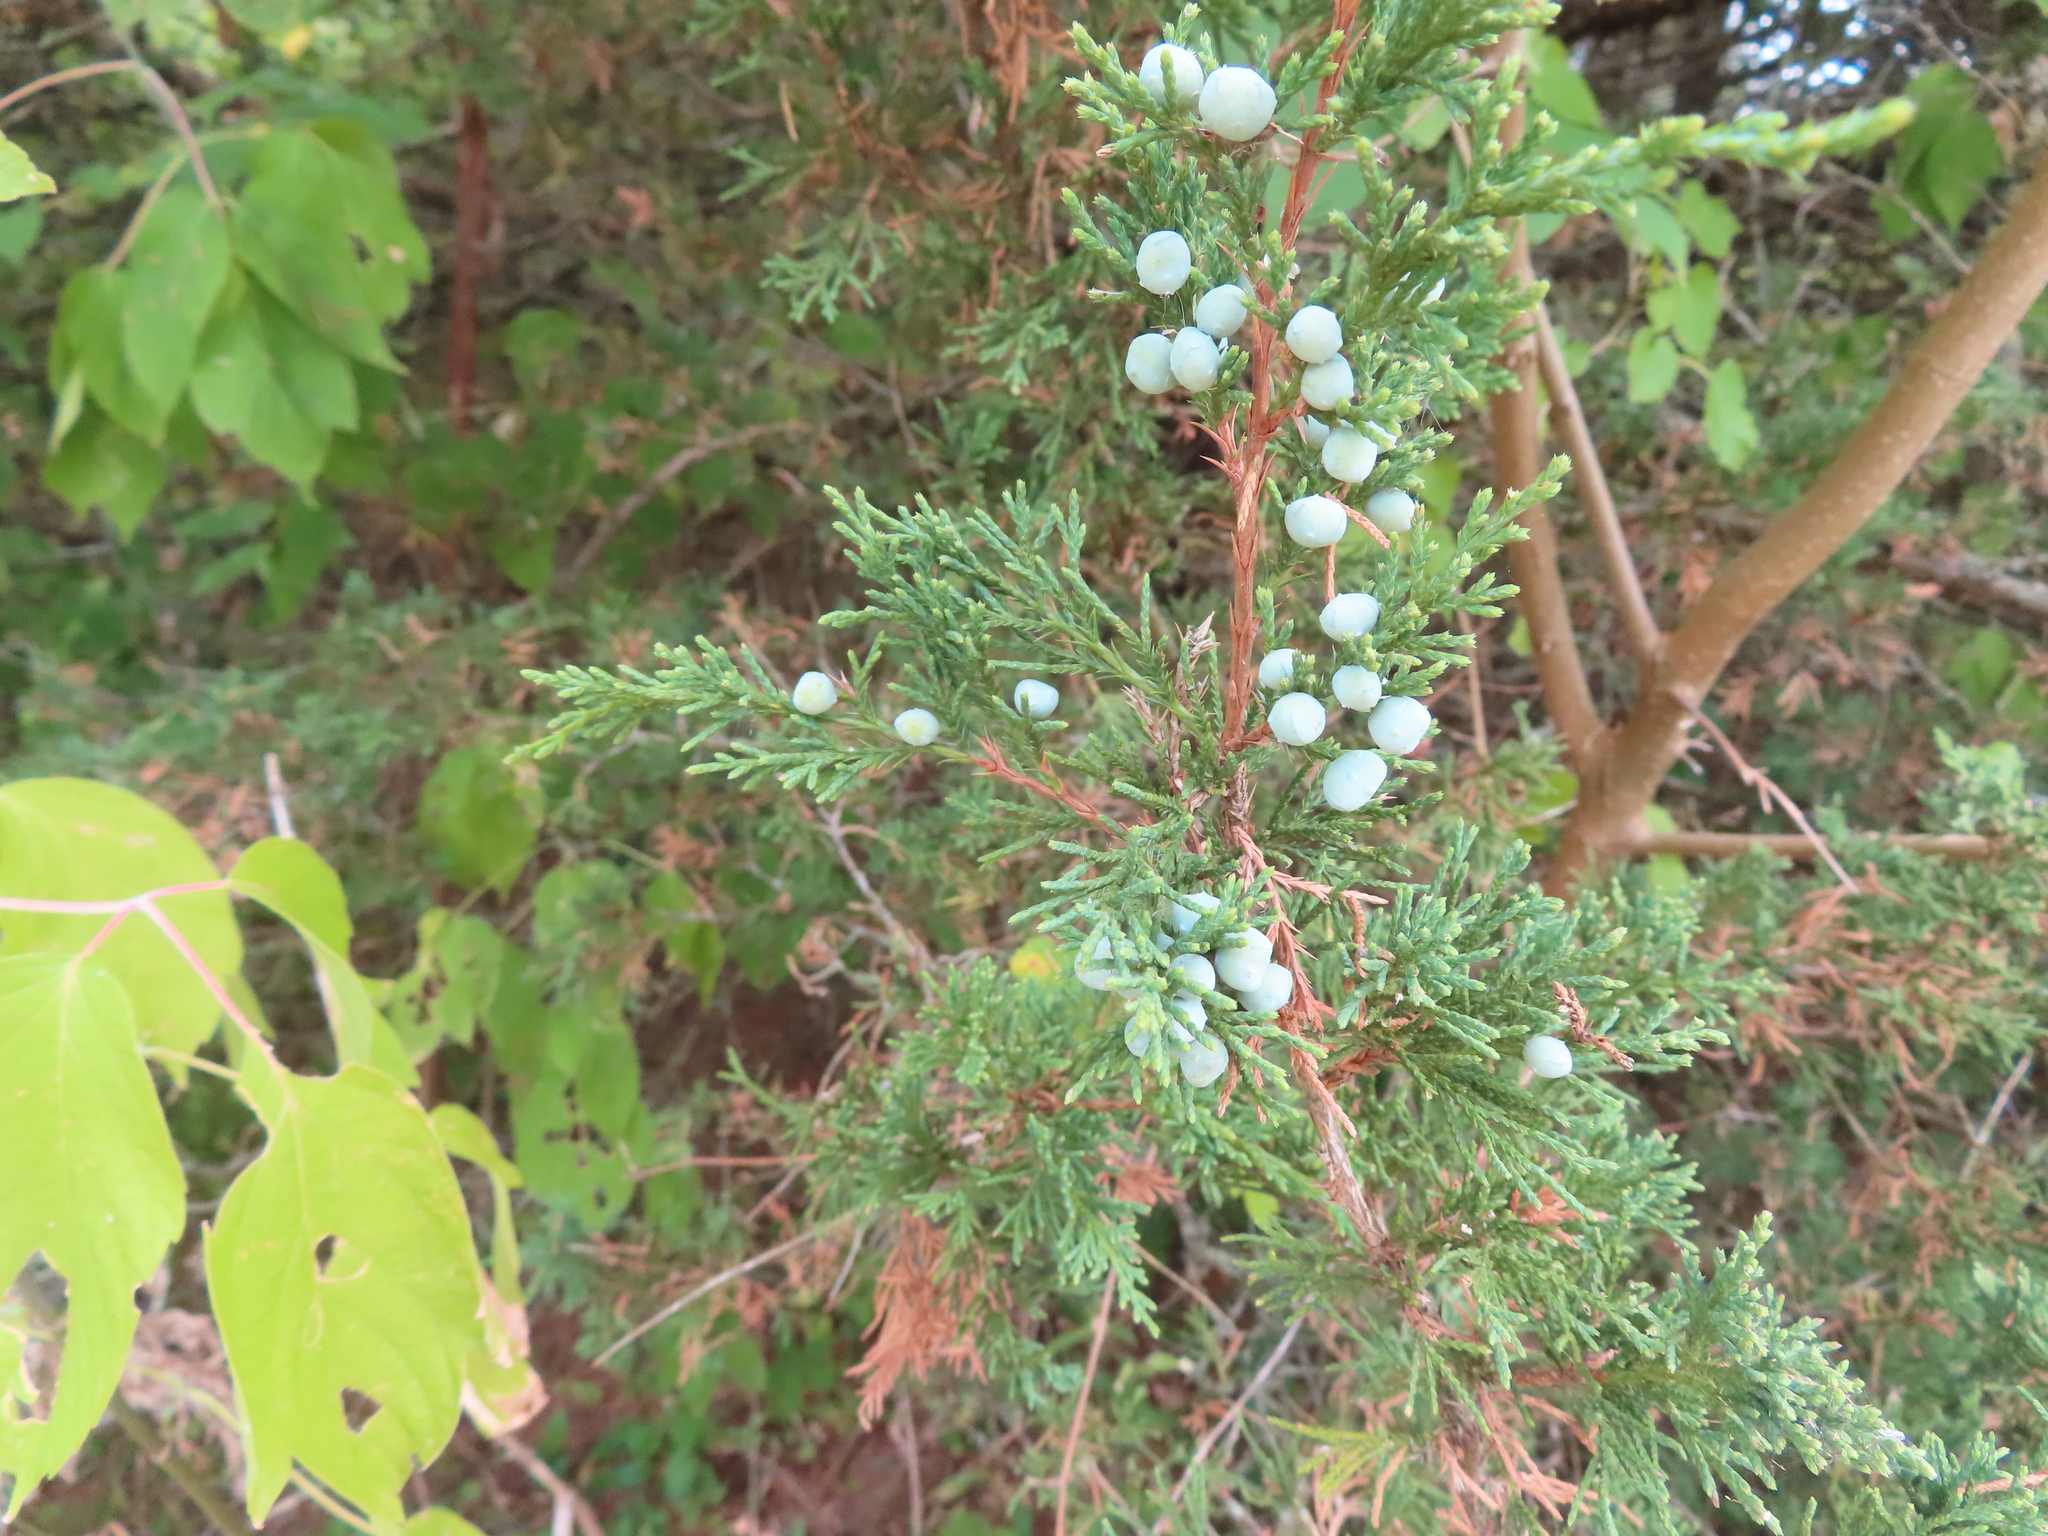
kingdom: Plantae
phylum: Tracheophyta
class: Pinopsida
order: Pinales
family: Cupressaceae
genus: Juniperus
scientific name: Juniperus virginiana
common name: Red juniper
